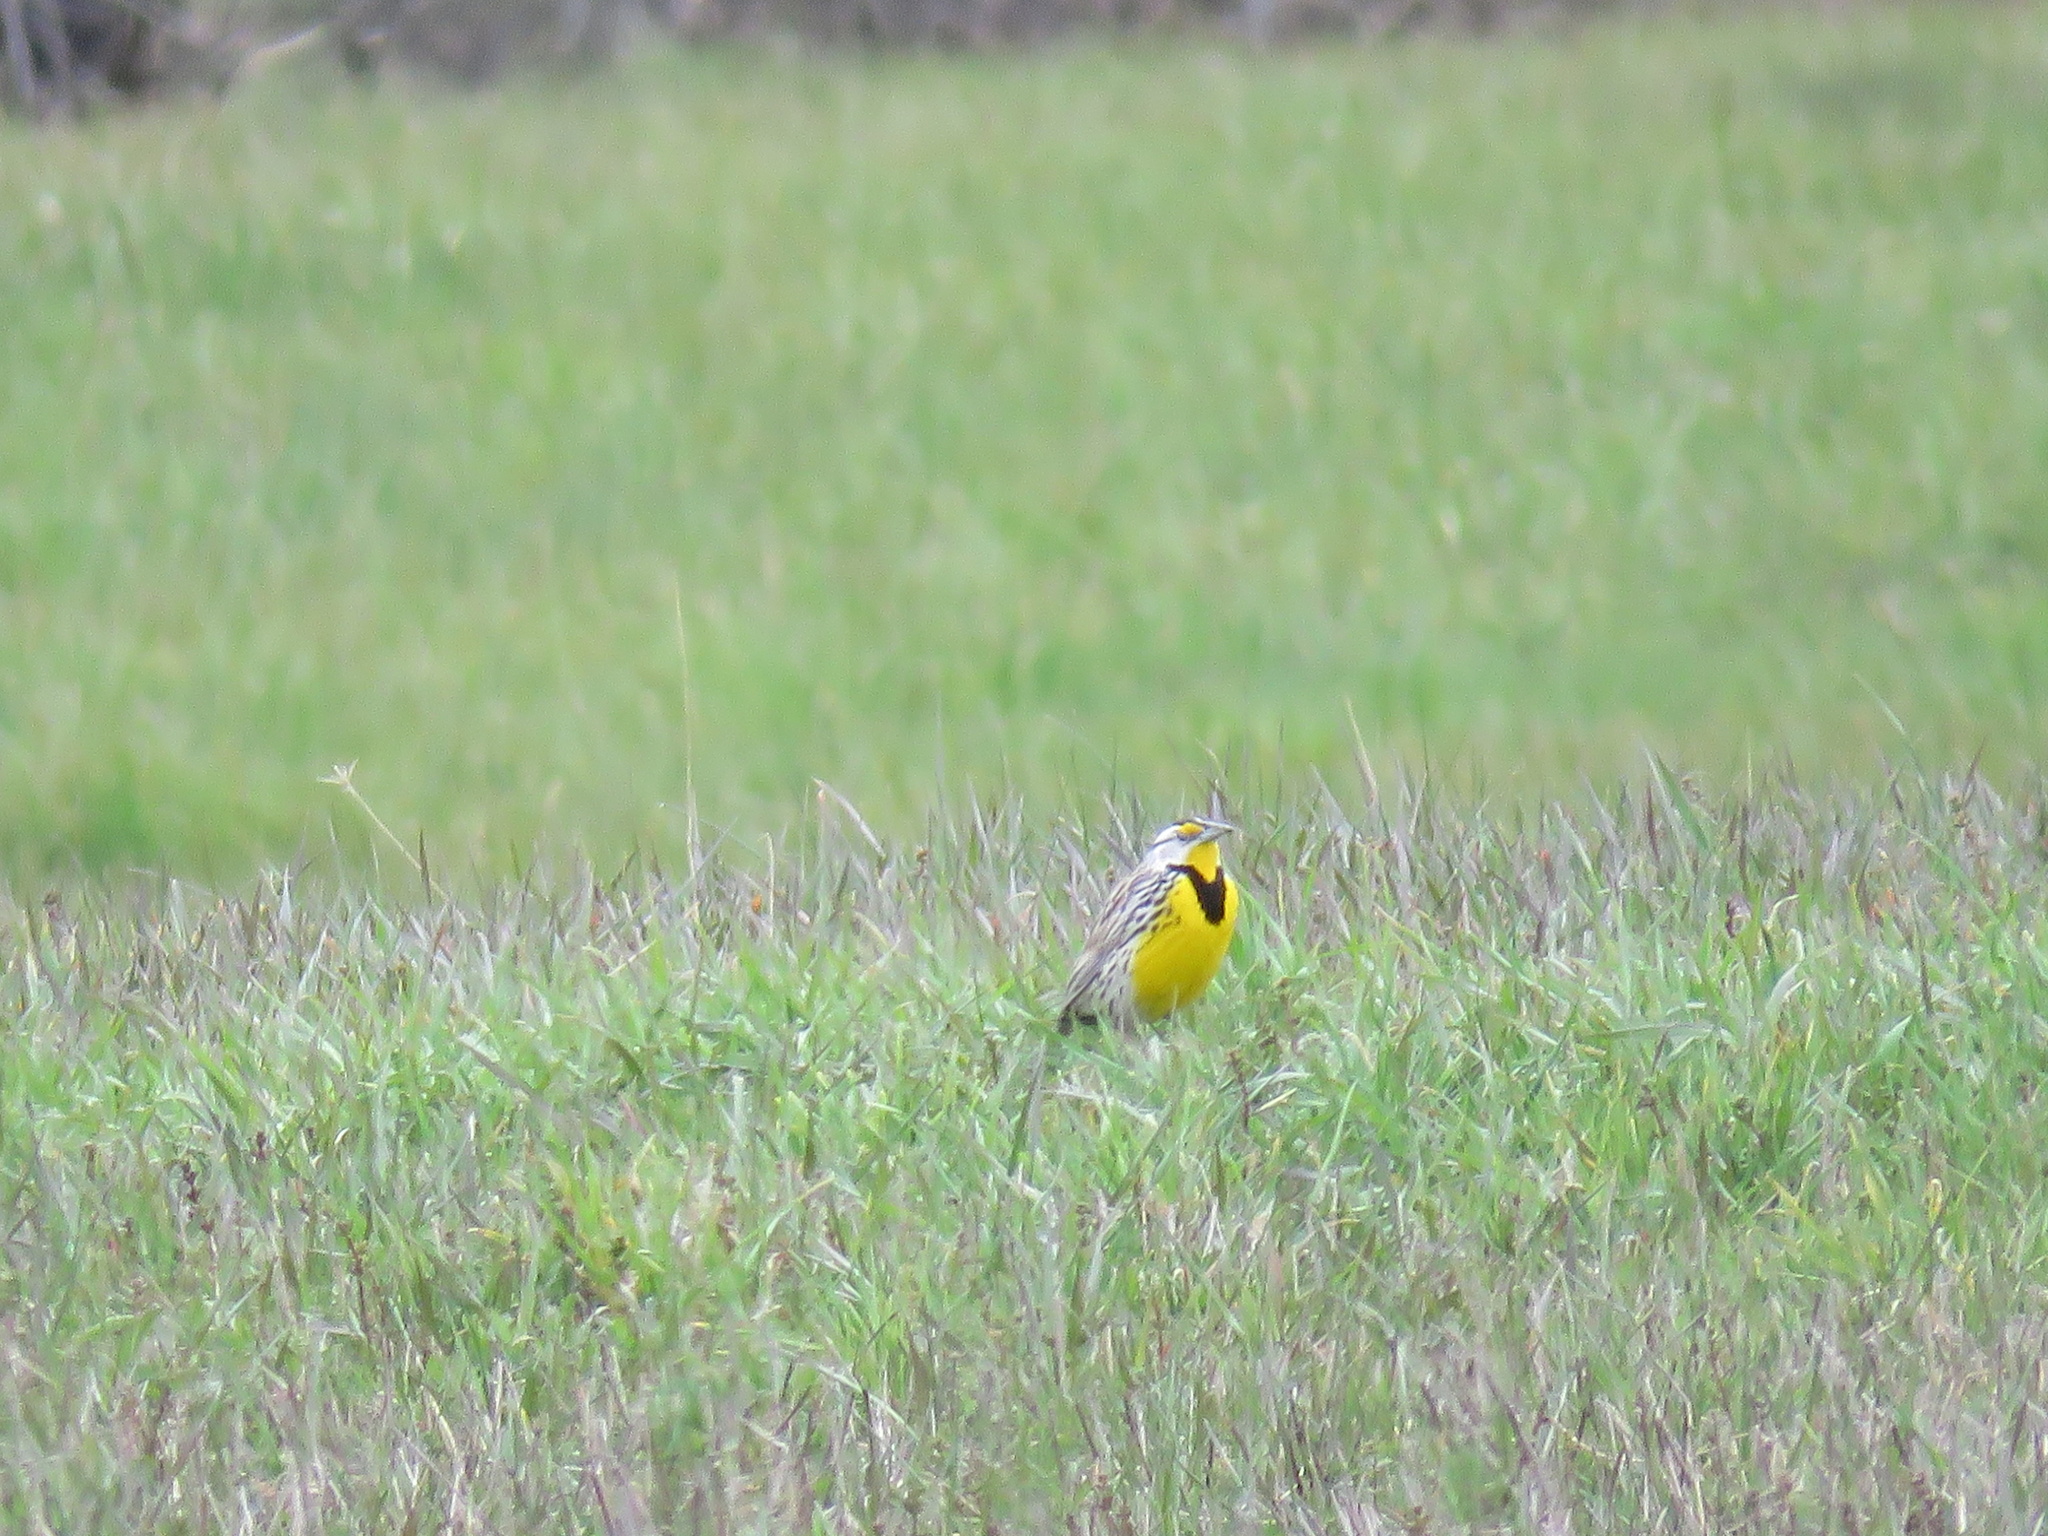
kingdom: Animalia
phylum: Chordata
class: Aves
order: Passeriformes
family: Icteridae
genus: Sturnella
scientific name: Sturnella magna
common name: Eastern meadowlark
